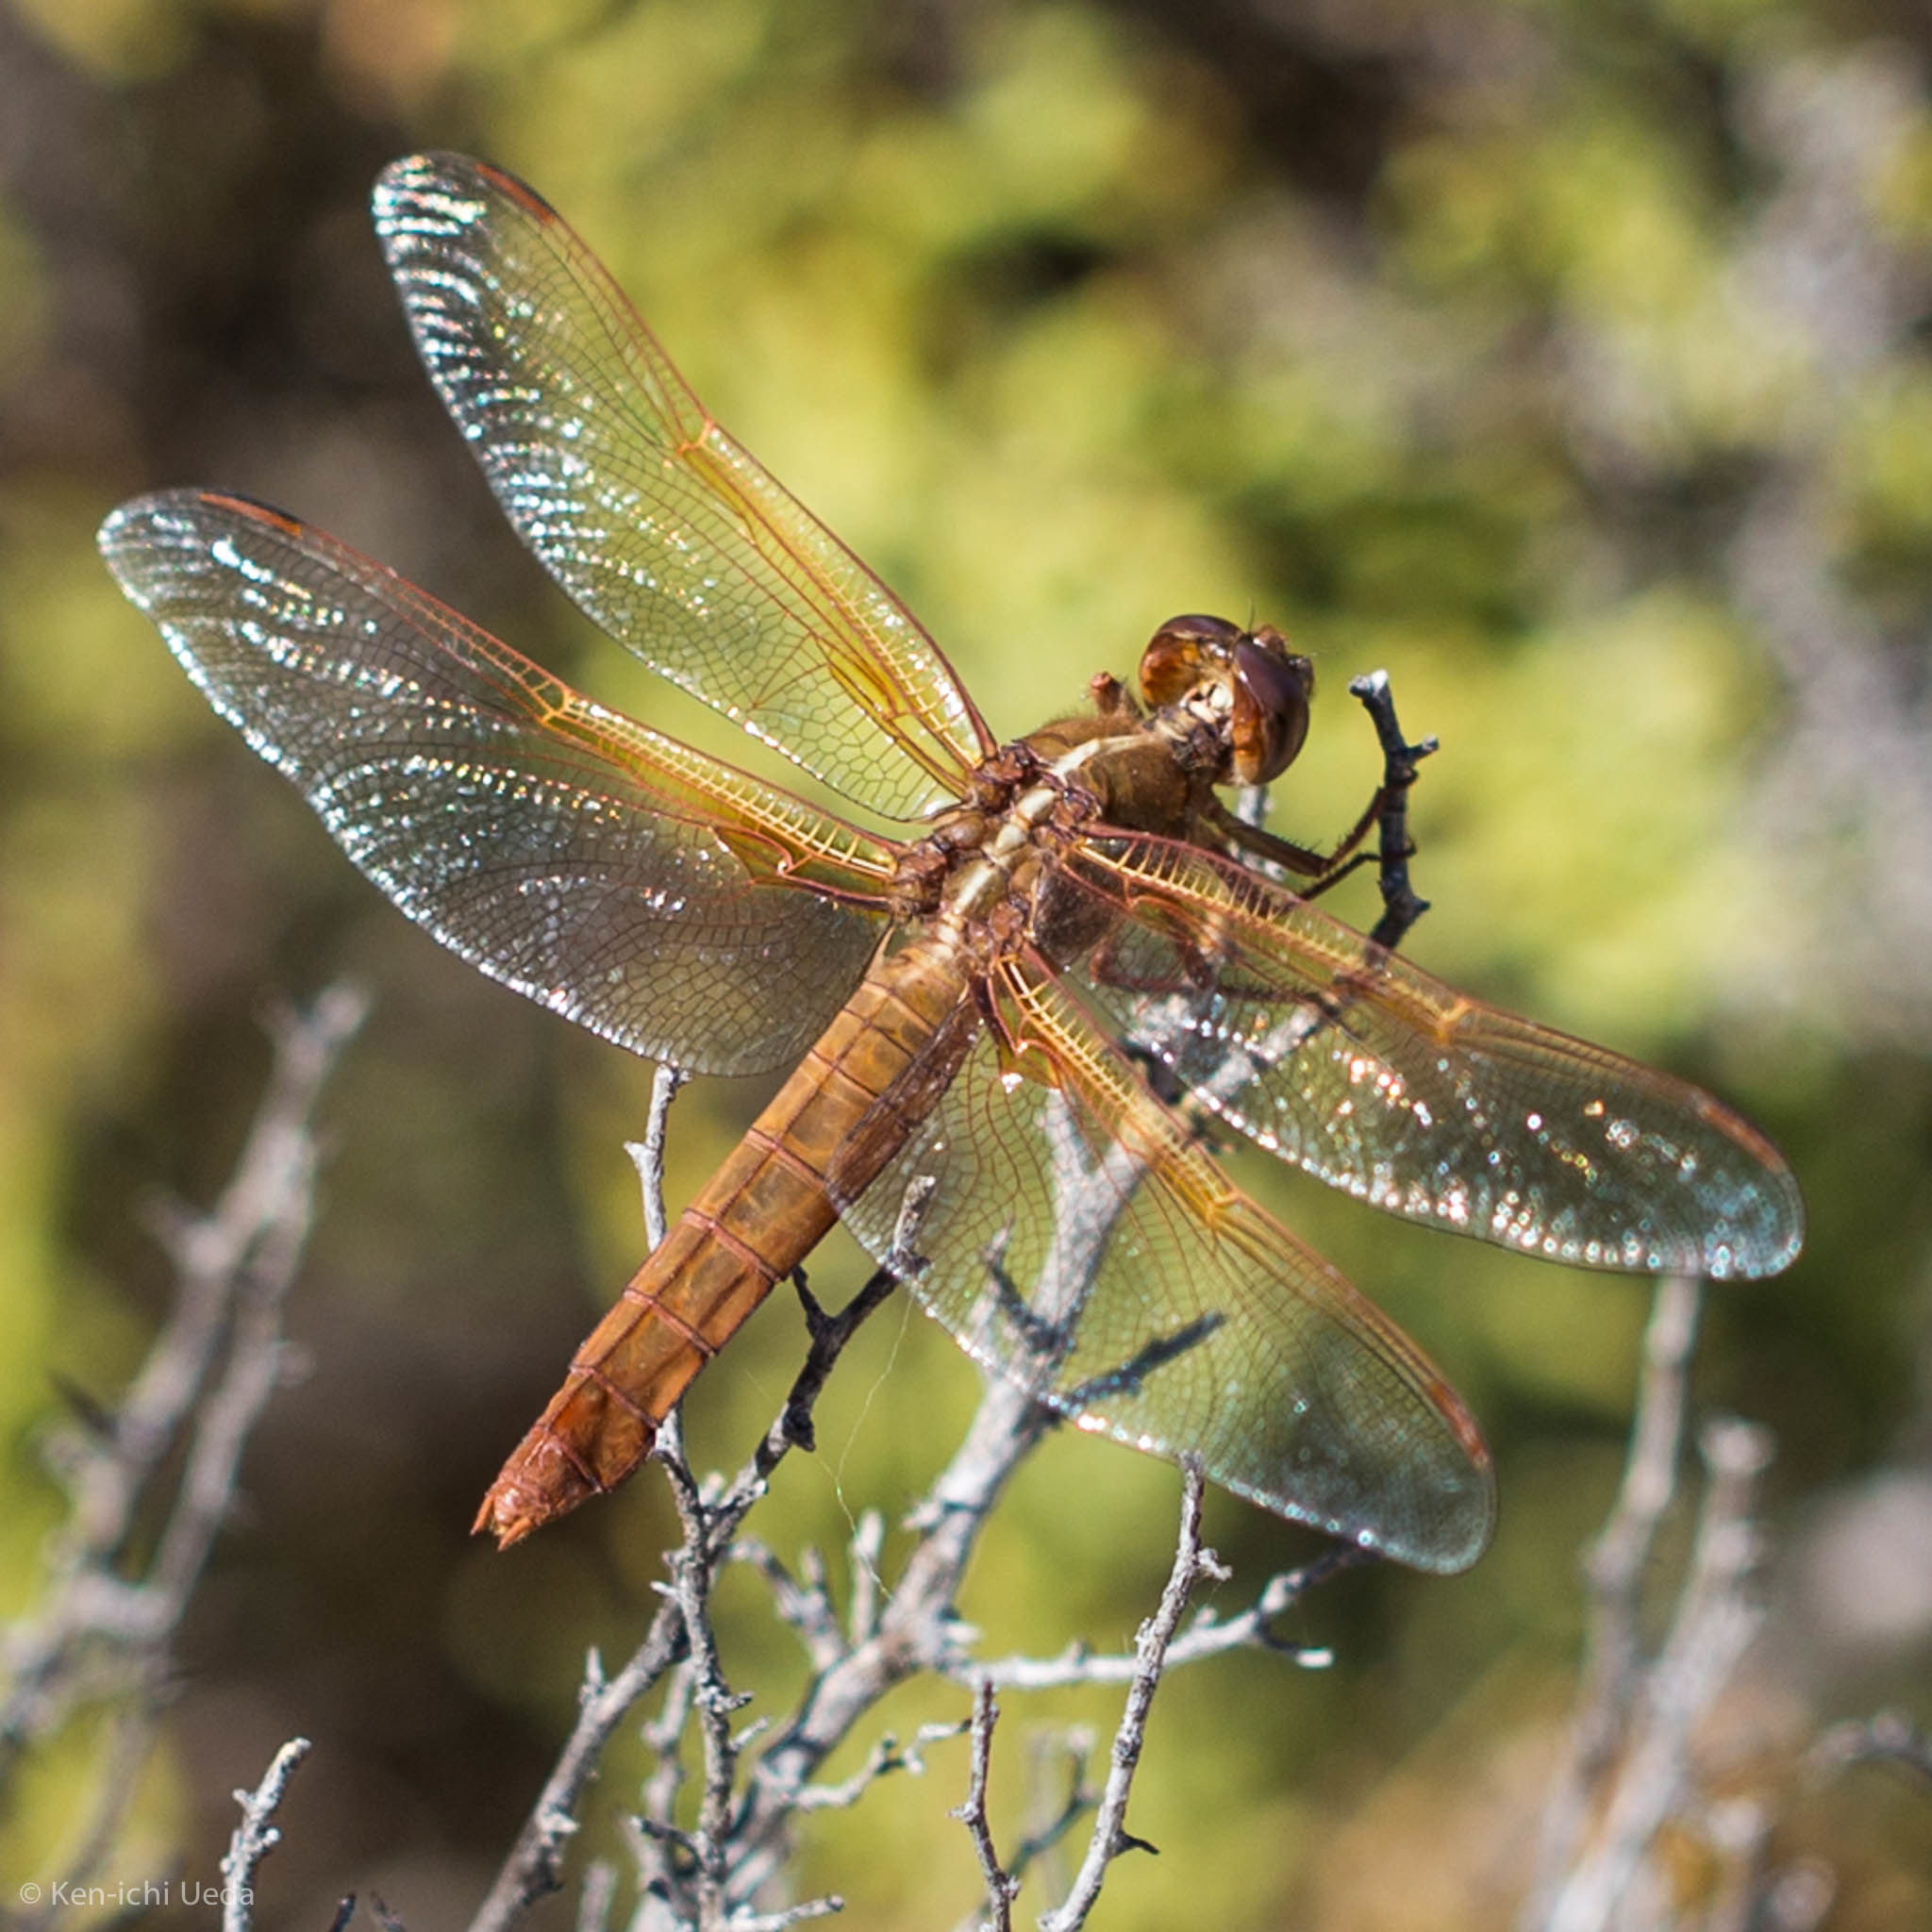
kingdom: Animalia
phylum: Arthropoda
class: Insecta
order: Odonata
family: Libellulidae
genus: Libellula
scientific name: Libellula saturata
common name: Flame skimmer
